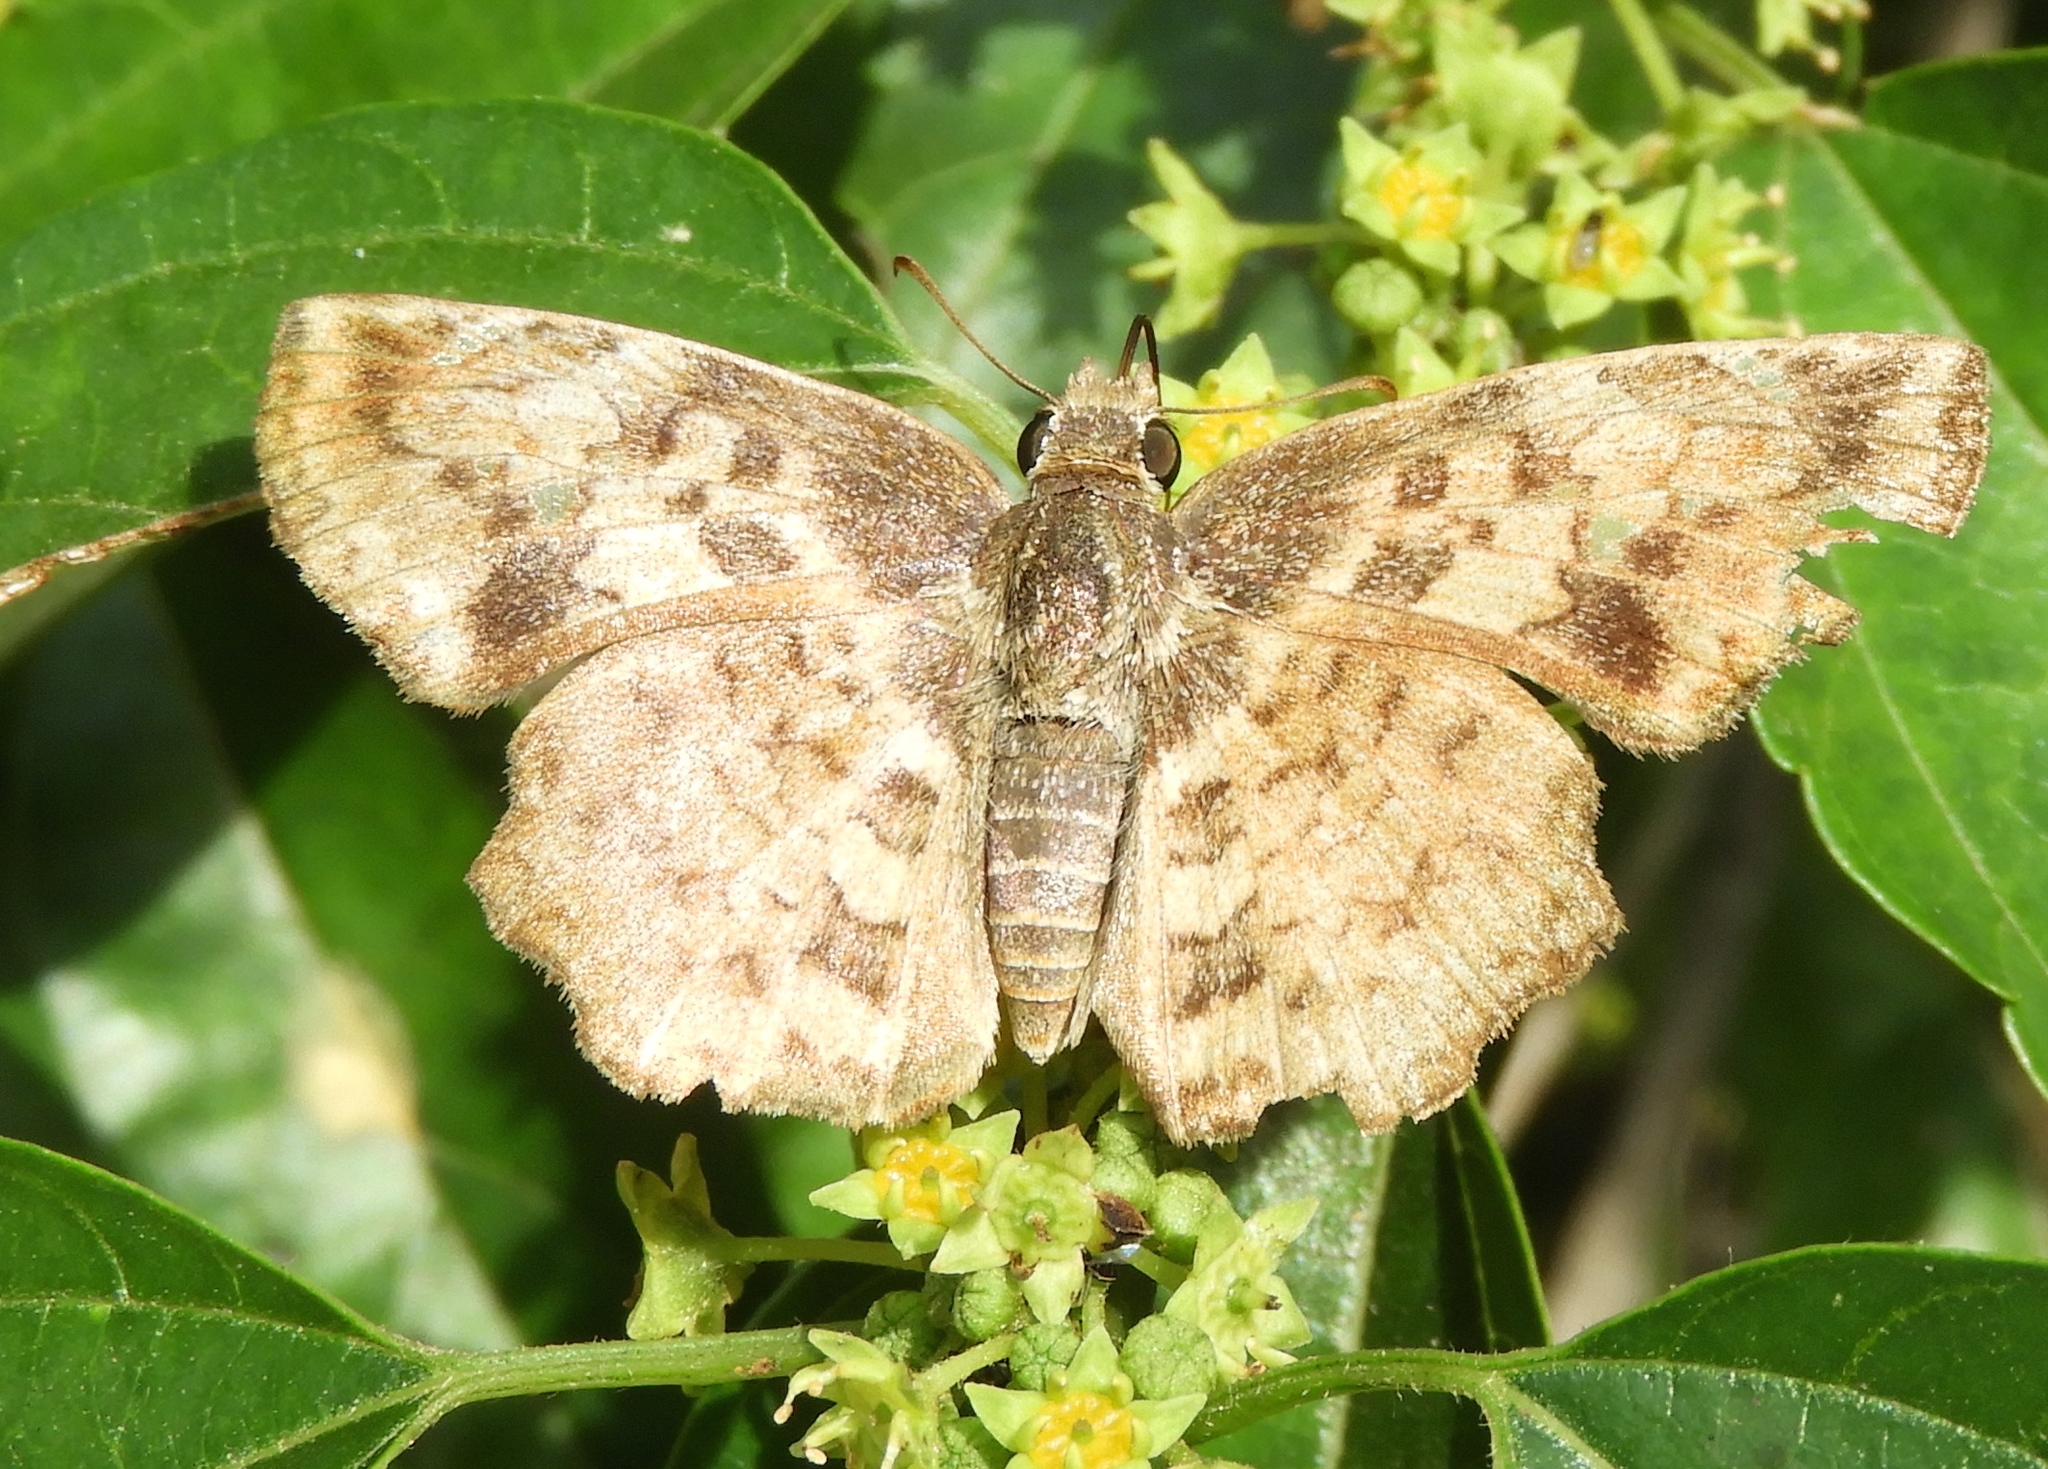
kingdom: Animalia
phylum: Arthropoda
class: Insecta
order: Lepidoptera
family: Hesperiidae
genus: Antigonus
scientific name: Antigonus erosus
